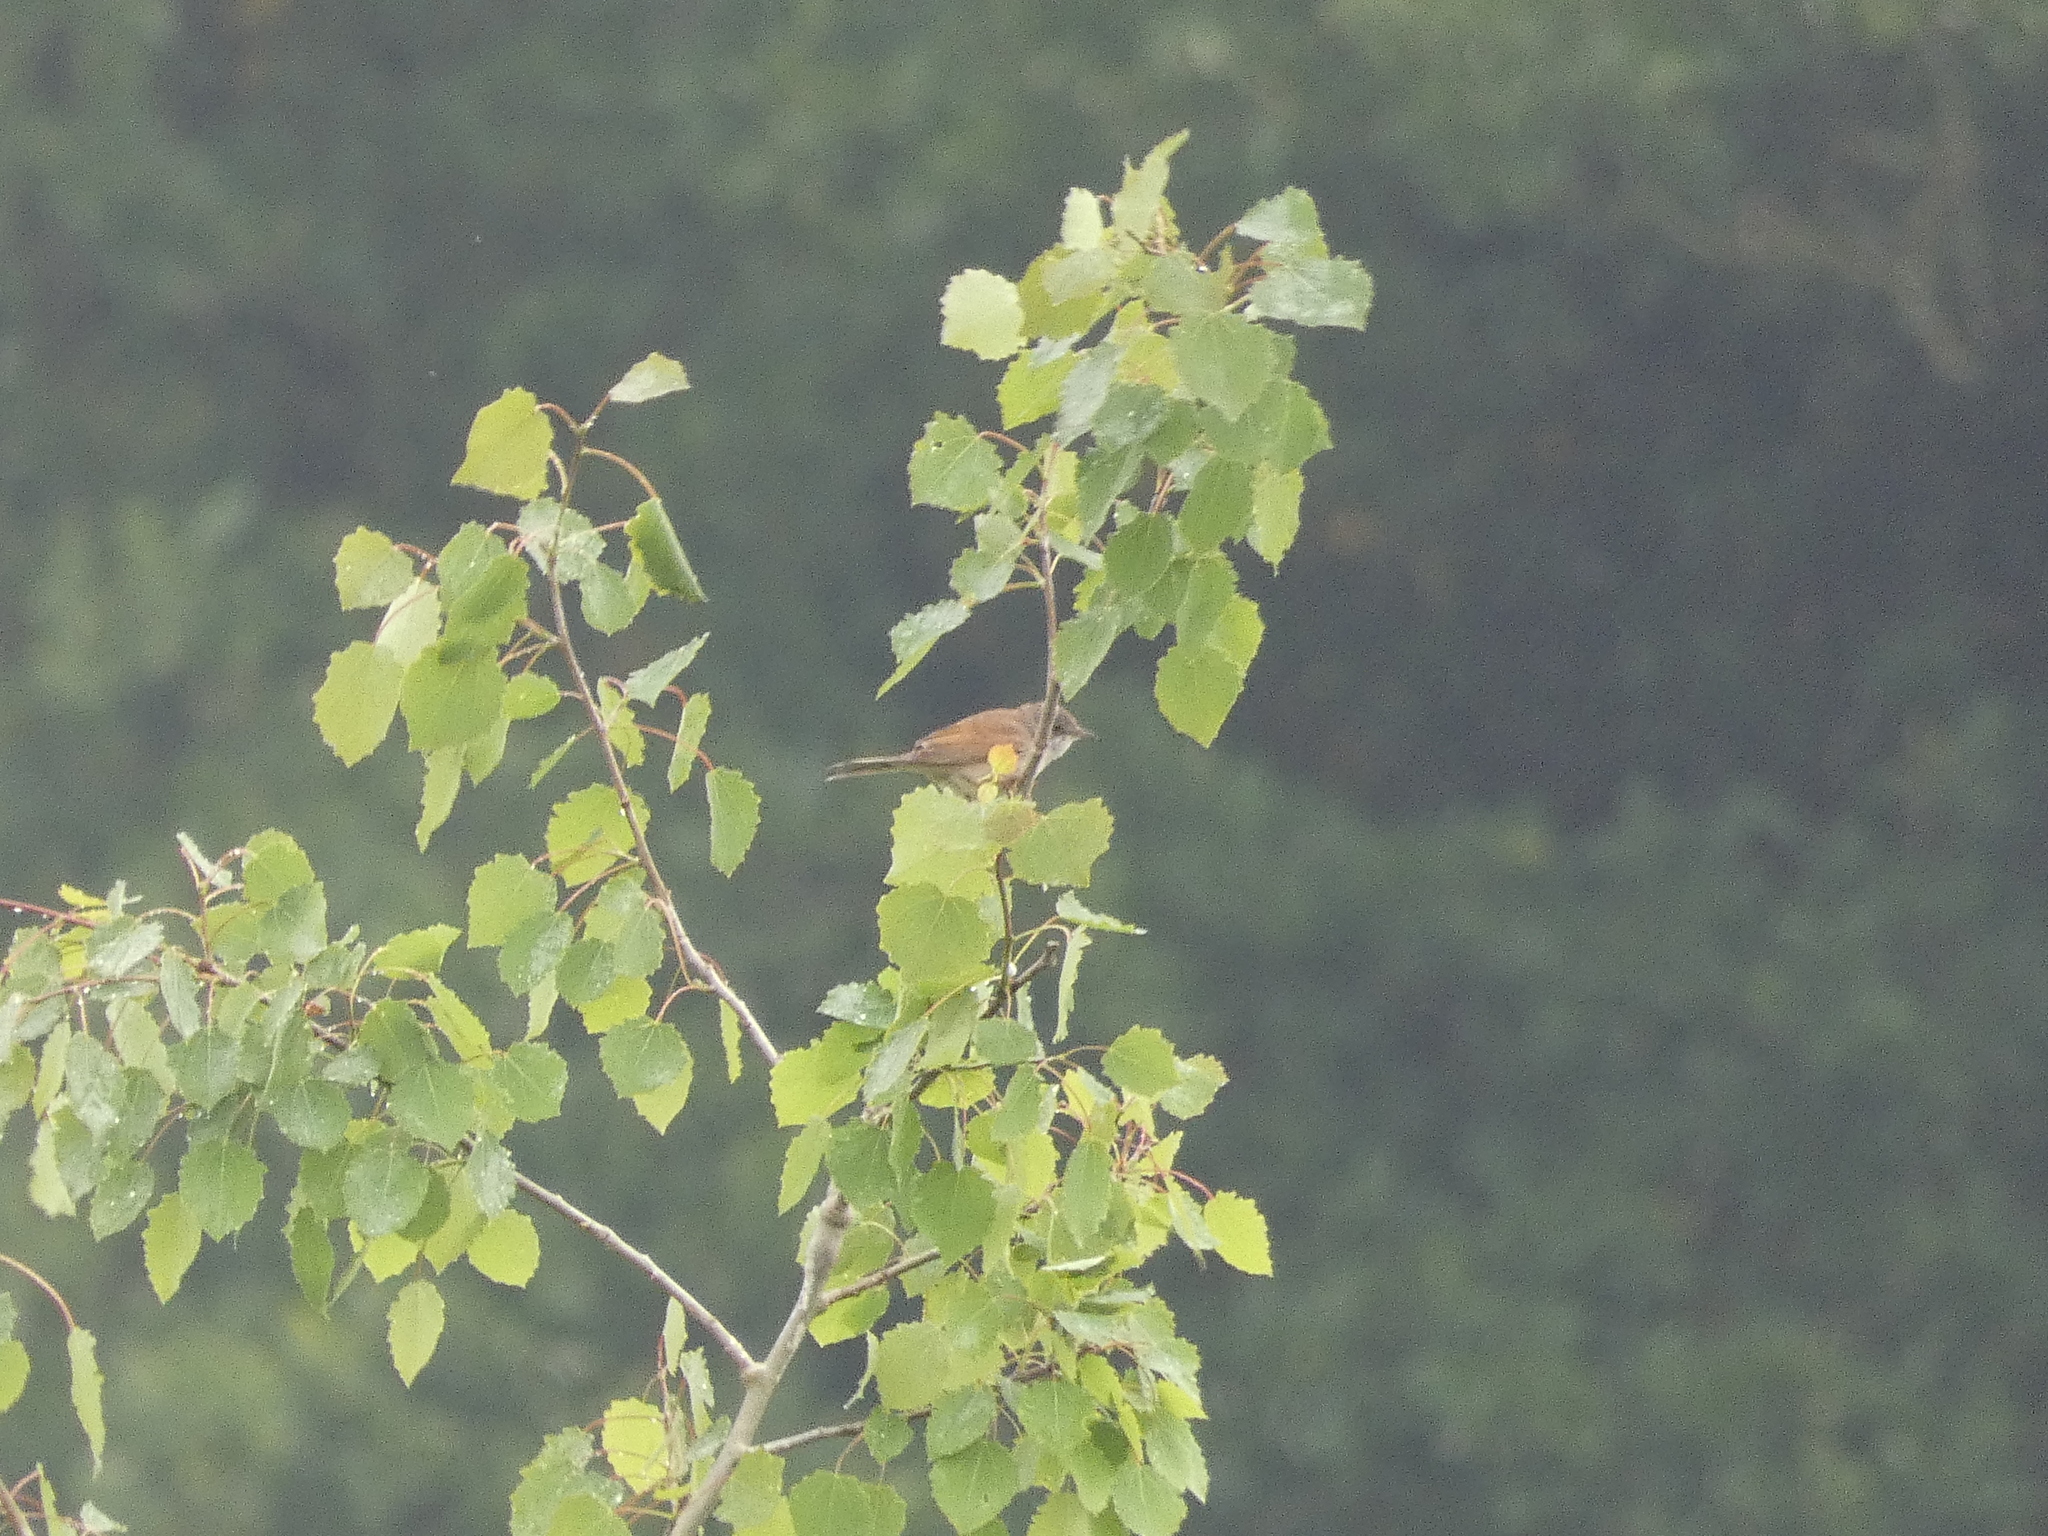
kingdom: Animalia
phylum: Chordata
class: Aves
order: Passeriformes
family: Sylviidae
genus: Sylvia
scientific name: Sylvia communis
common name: Common whitethroat
